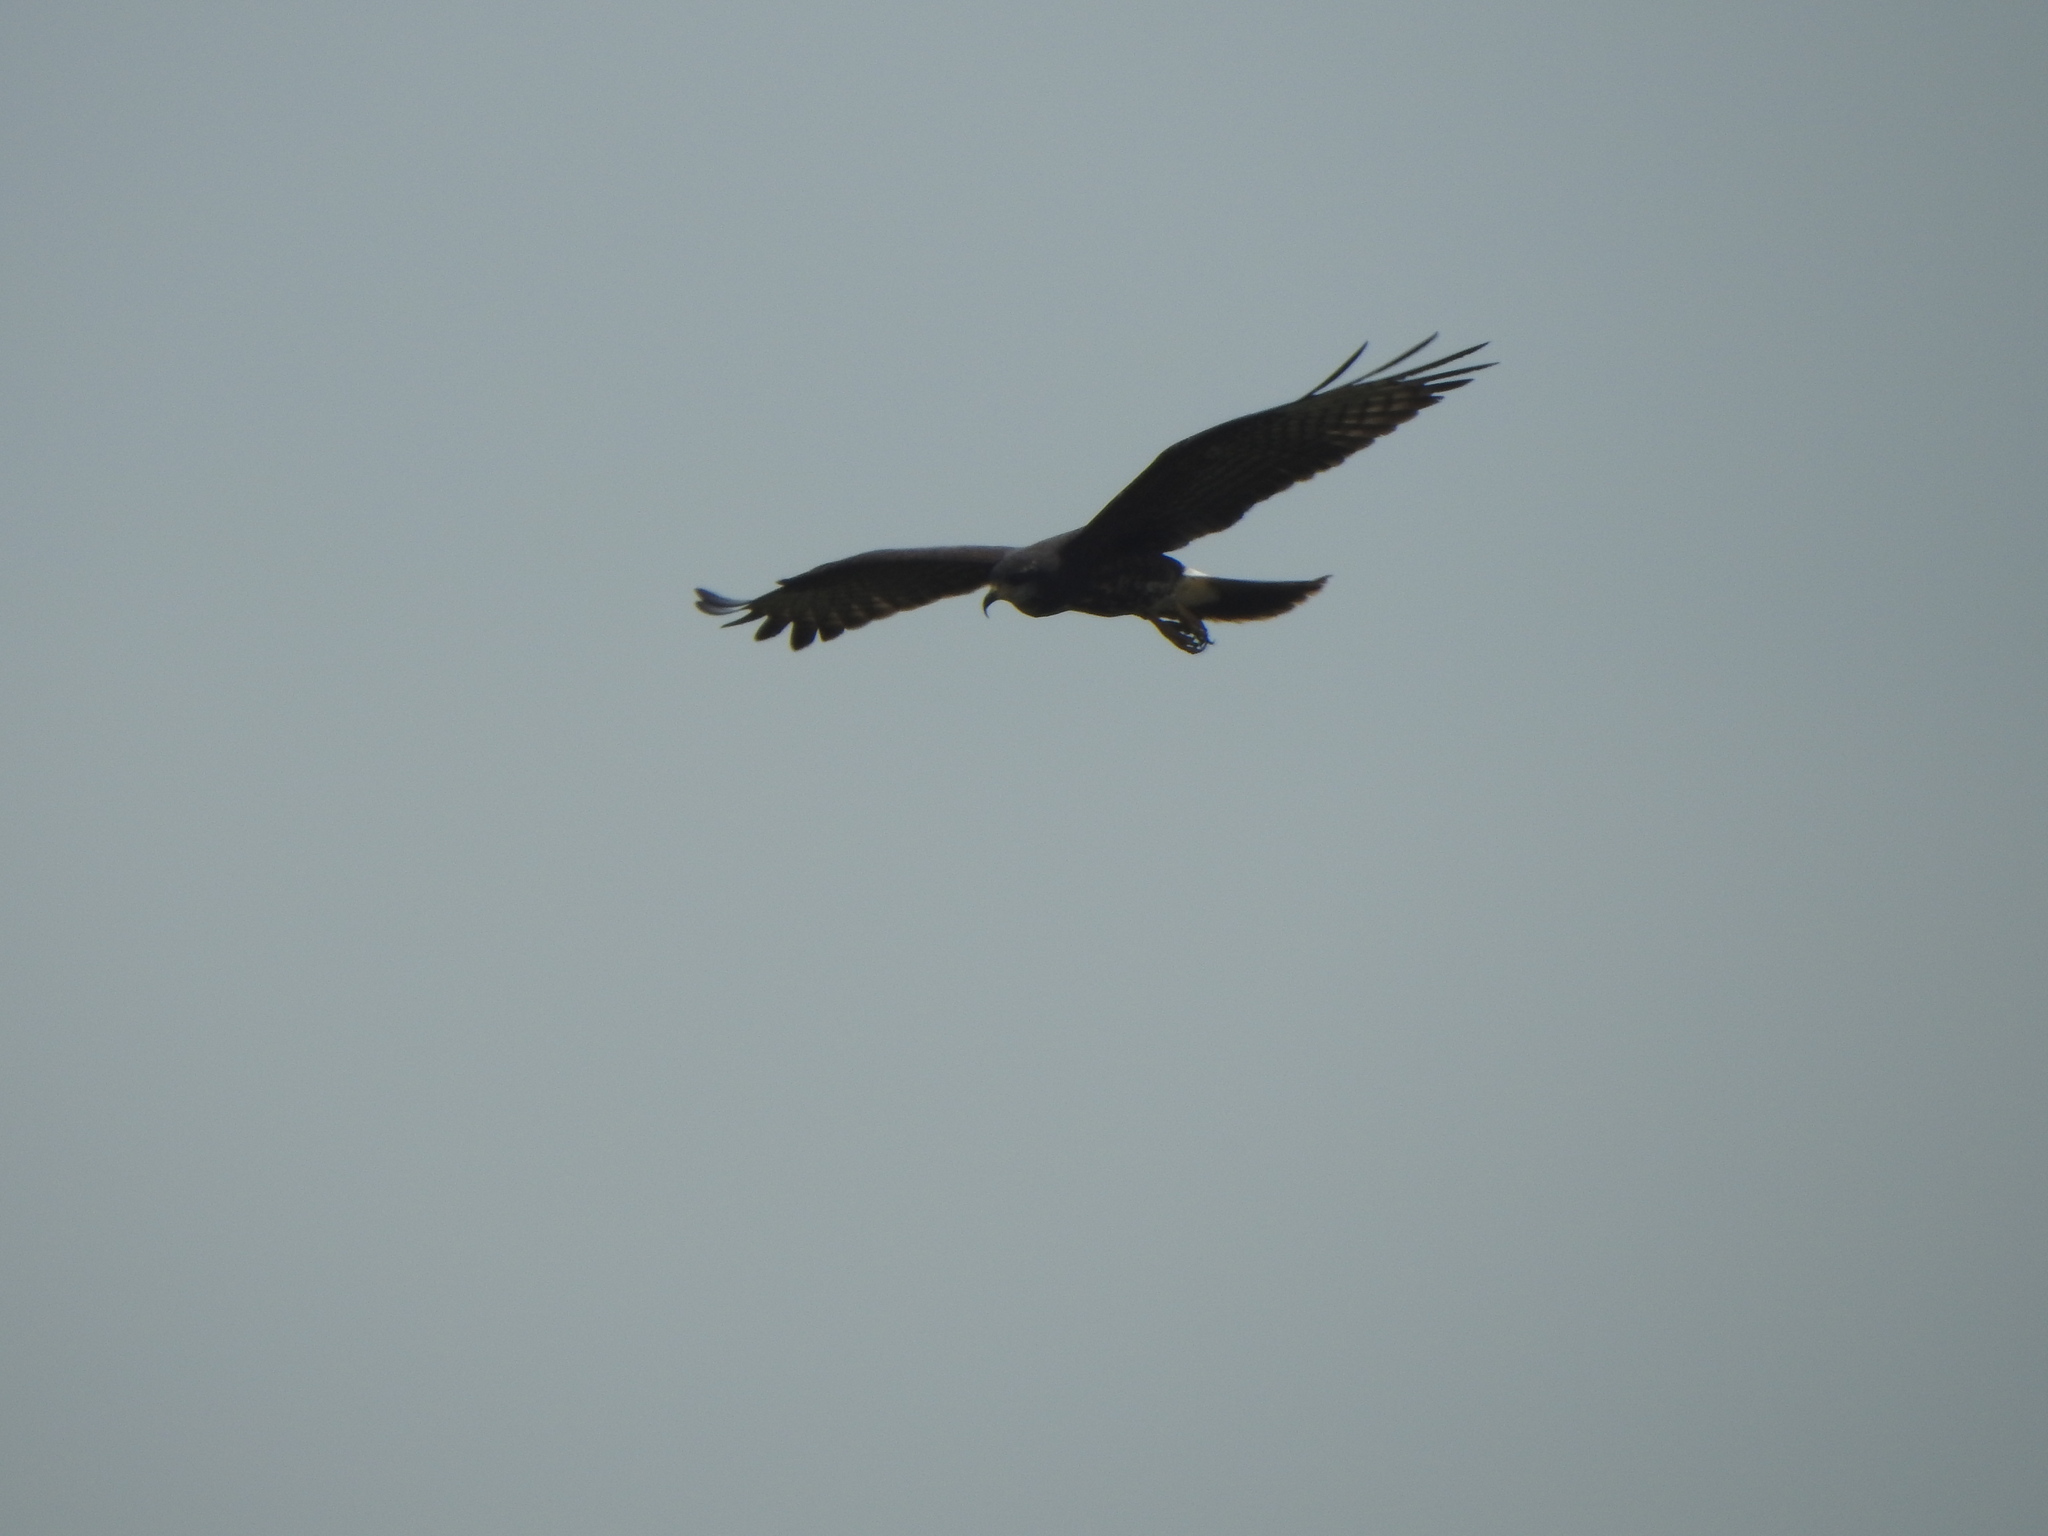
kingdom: Animalia
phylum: Chordata
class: Aves
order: Accipitriformes
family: Accipitridae
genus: Rostrhamus
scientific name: Rostrhamus sociabilis
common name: Snail kite
